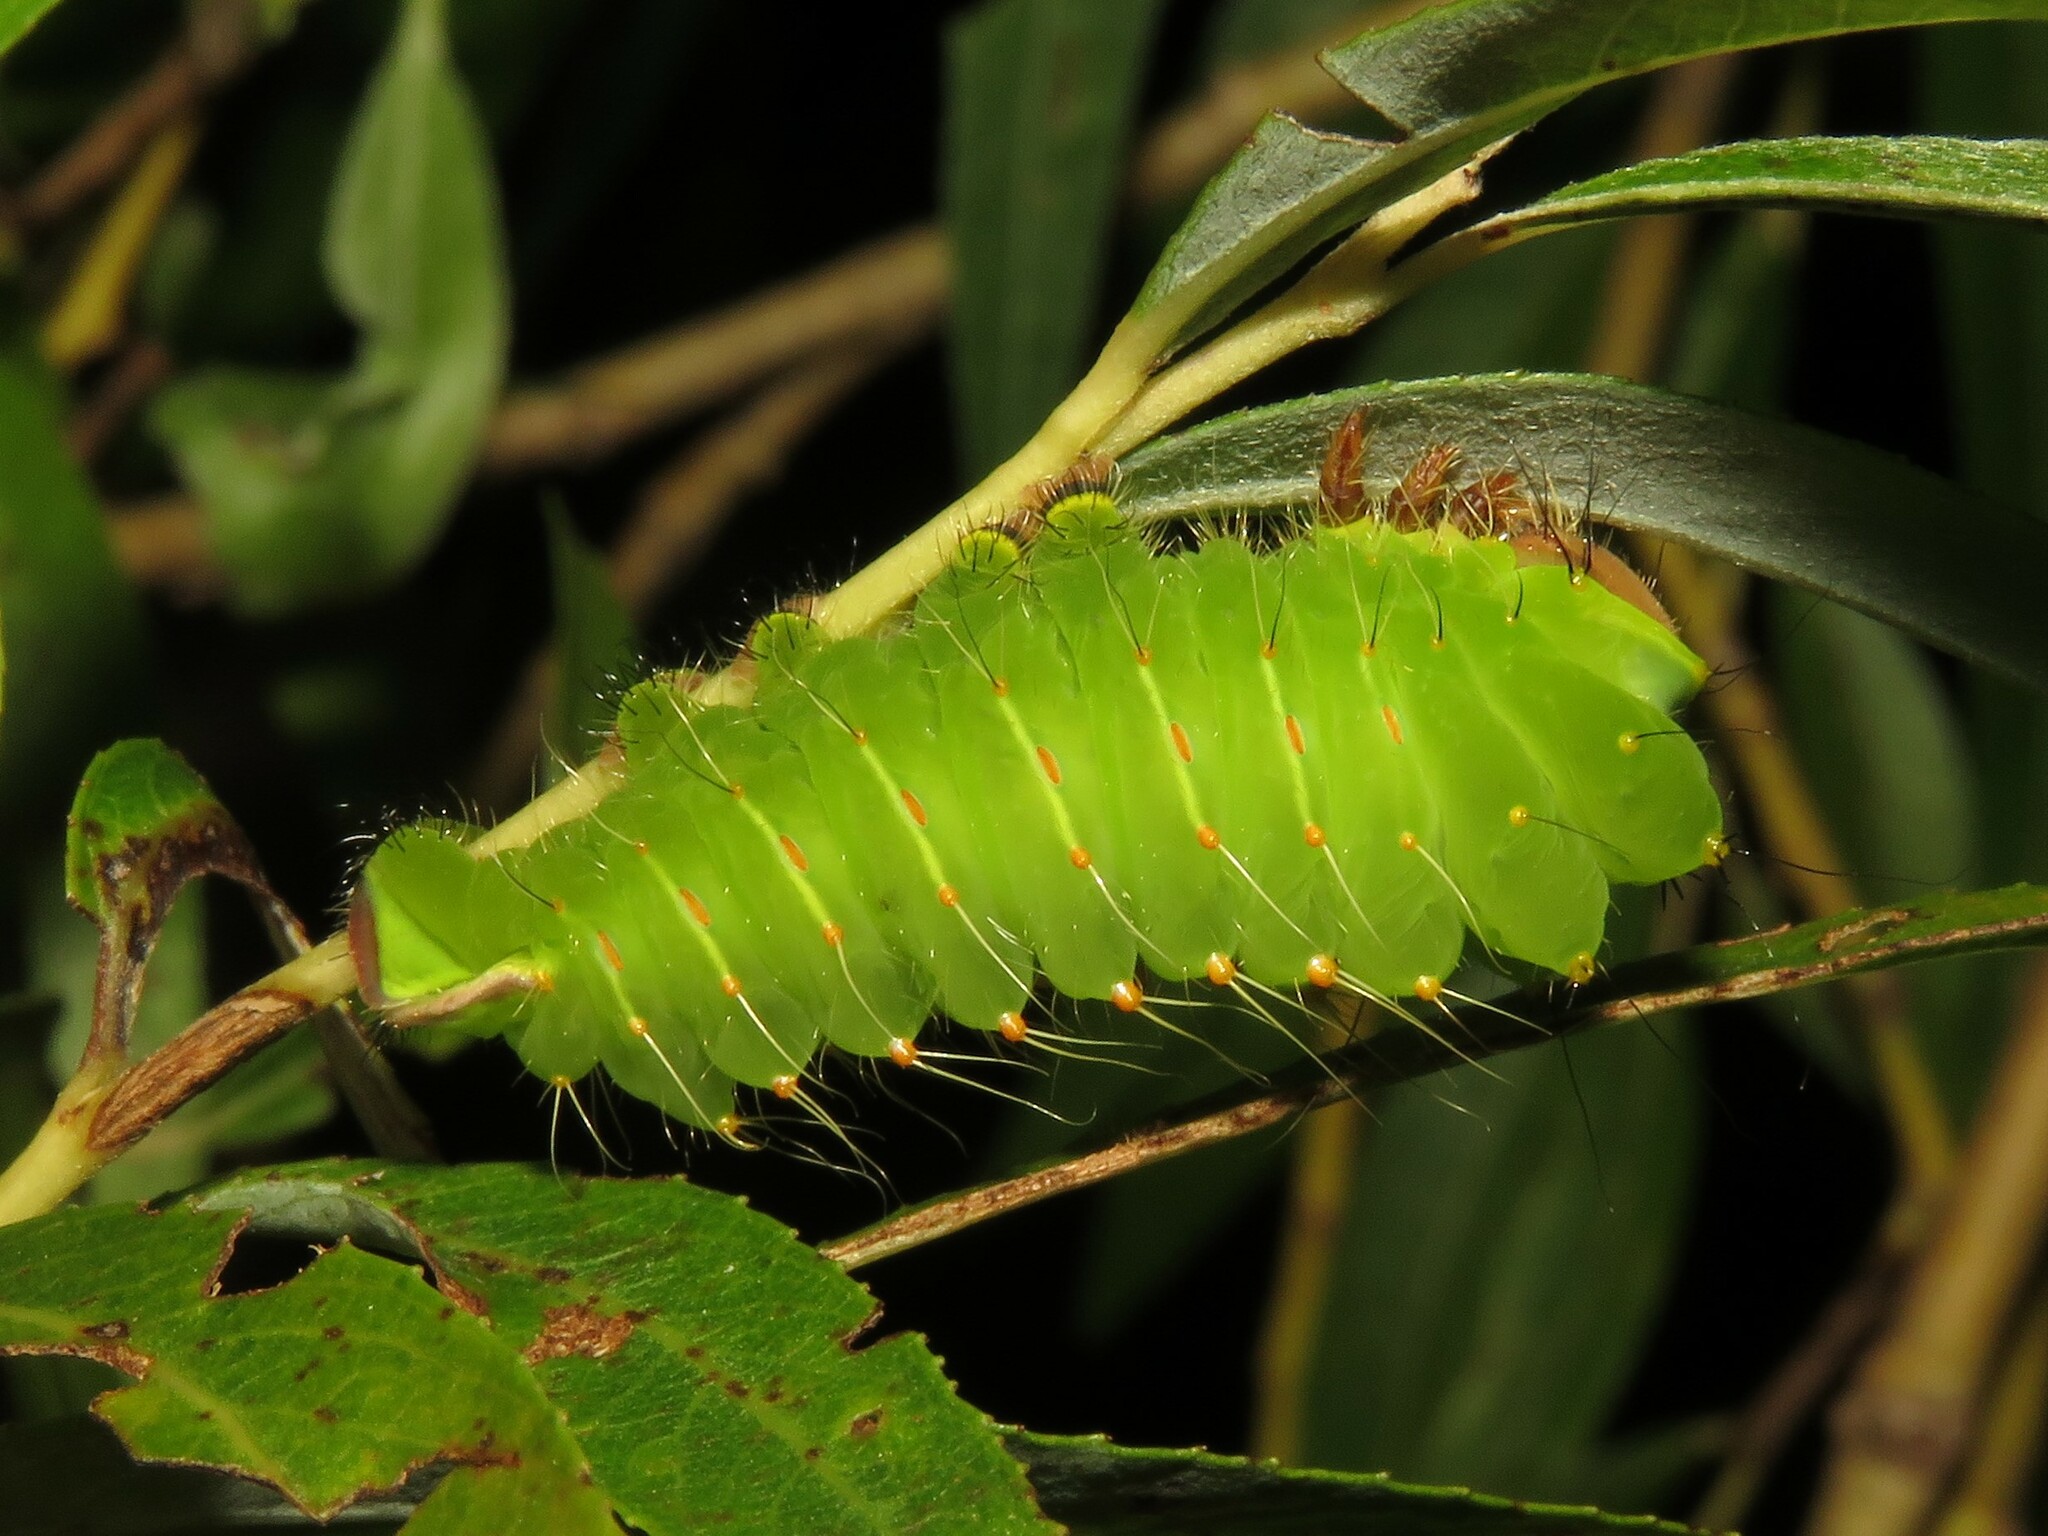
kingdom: Animalia
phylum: Arthropoda
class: Insecta
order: Lepidoptera
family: Saturniidae
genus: Antheraea
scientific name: Antheraea polyphemus
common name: Polyphemus moth
